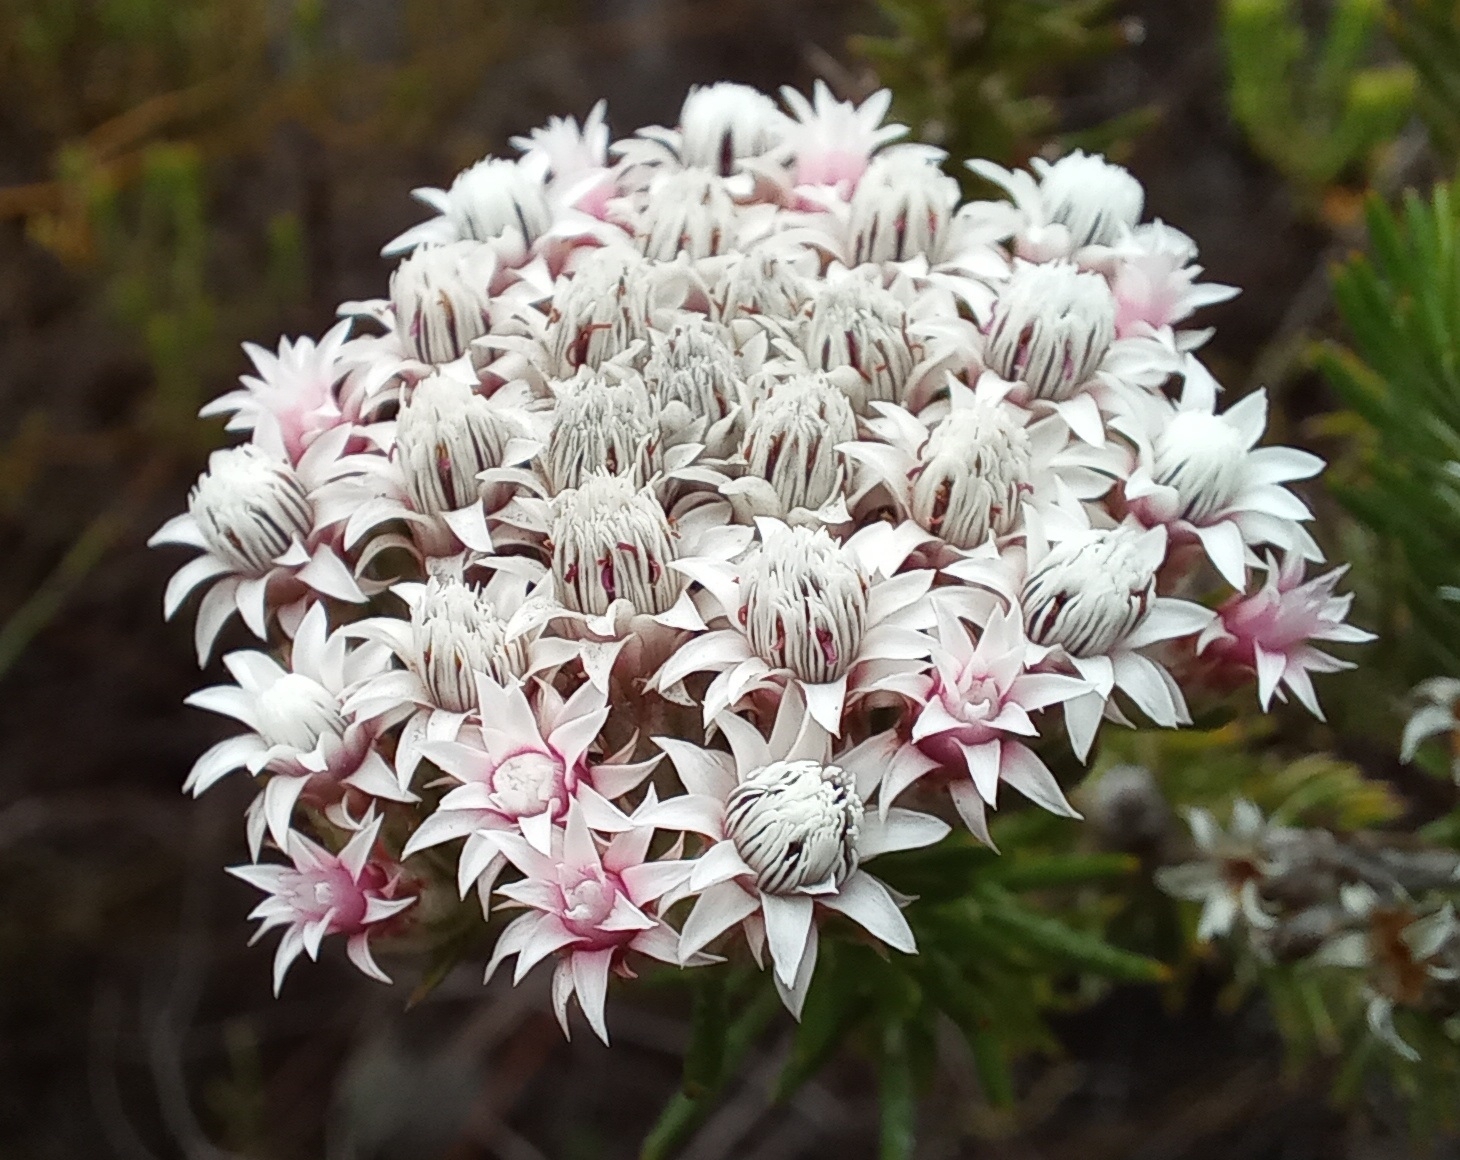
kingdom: Plantae
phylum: Tracheophyta
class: Magnoliopsida
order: Asterales
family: Asteraceae
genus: Metalasia
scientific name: Metalasia lichtensteinii
